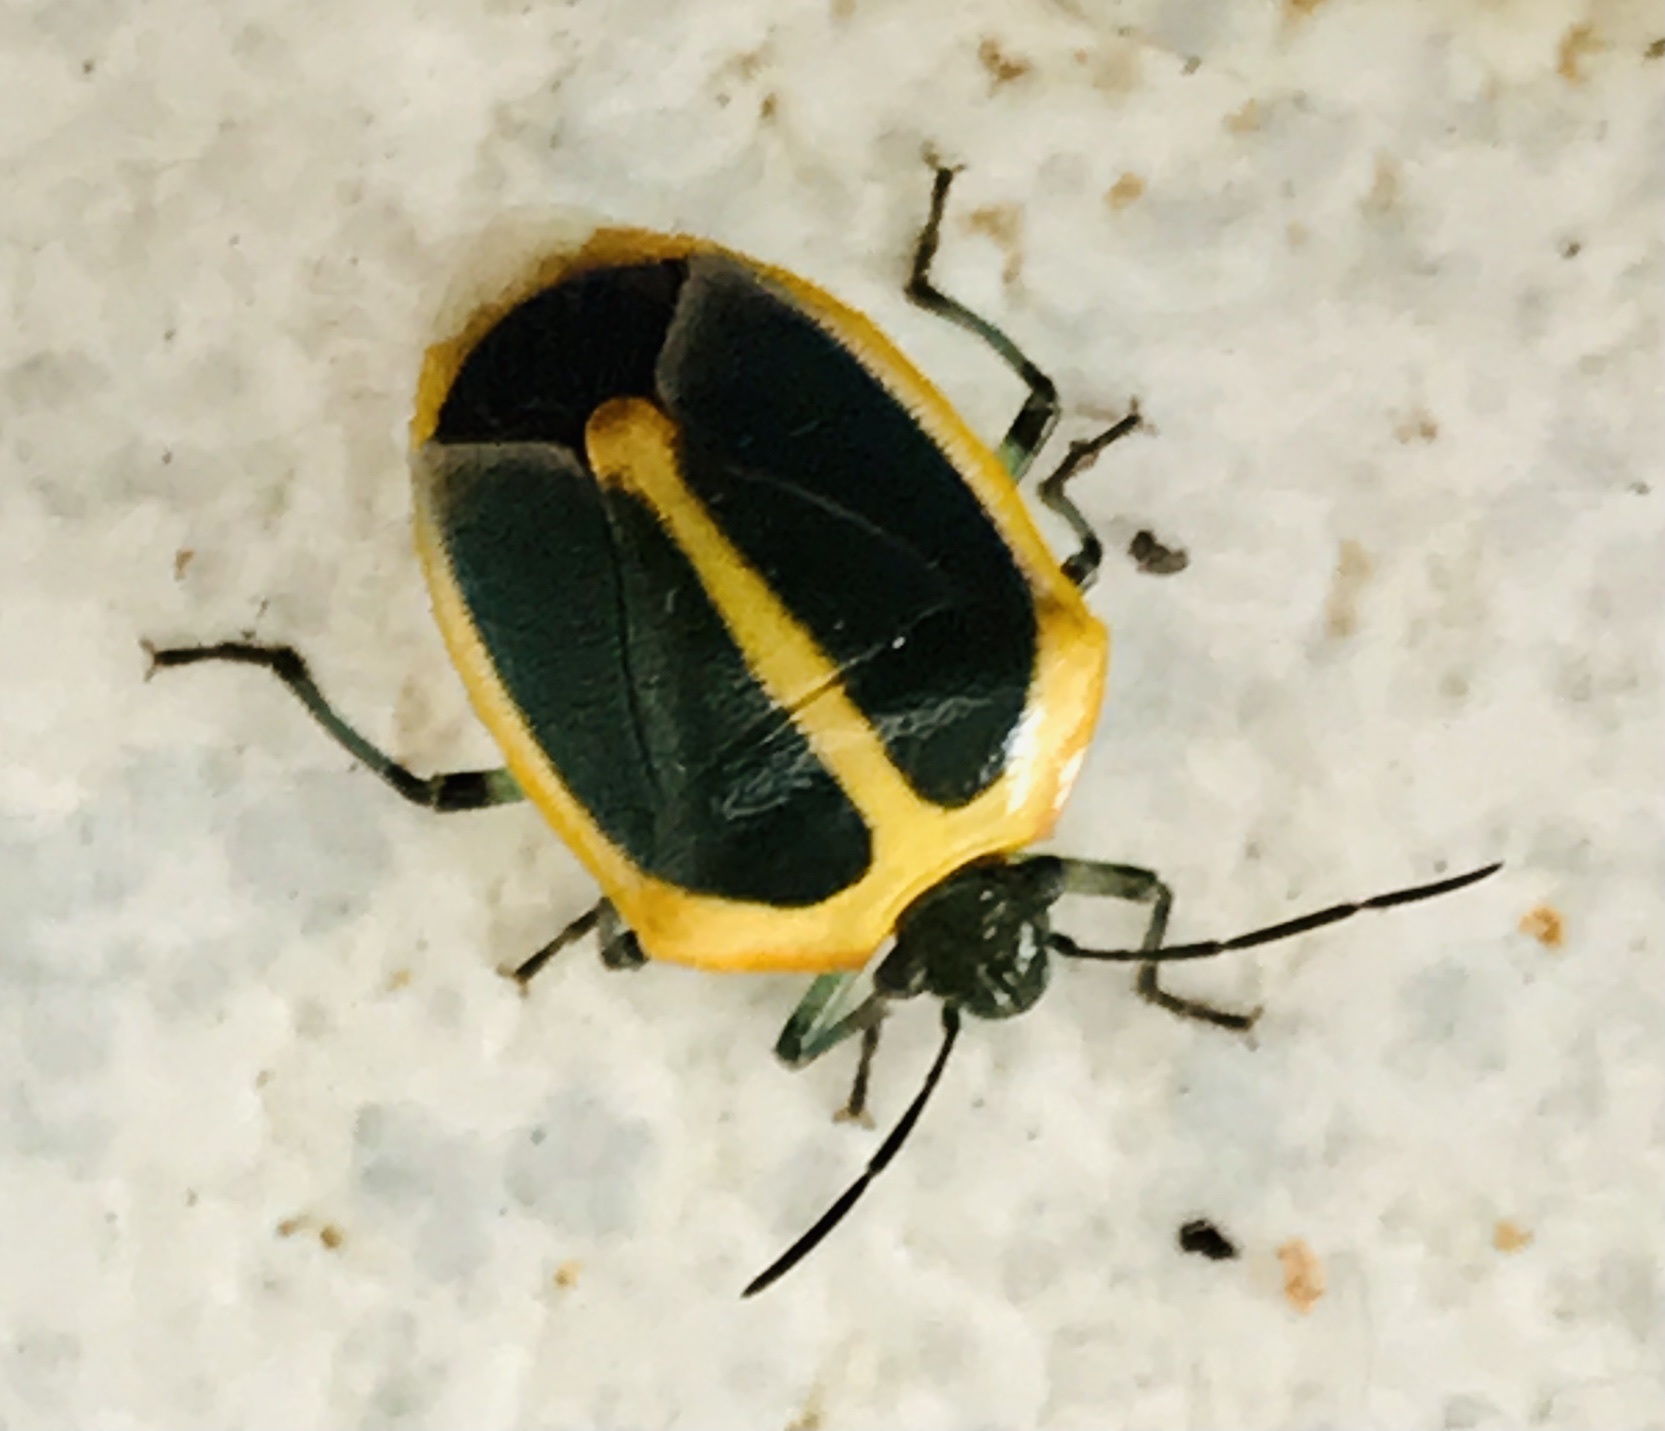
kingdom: Animalia
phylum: Arthropoda
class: Insecta
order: Hemiptera
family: Pentatomidae
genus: Roferta
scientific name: Roferta marginalis
